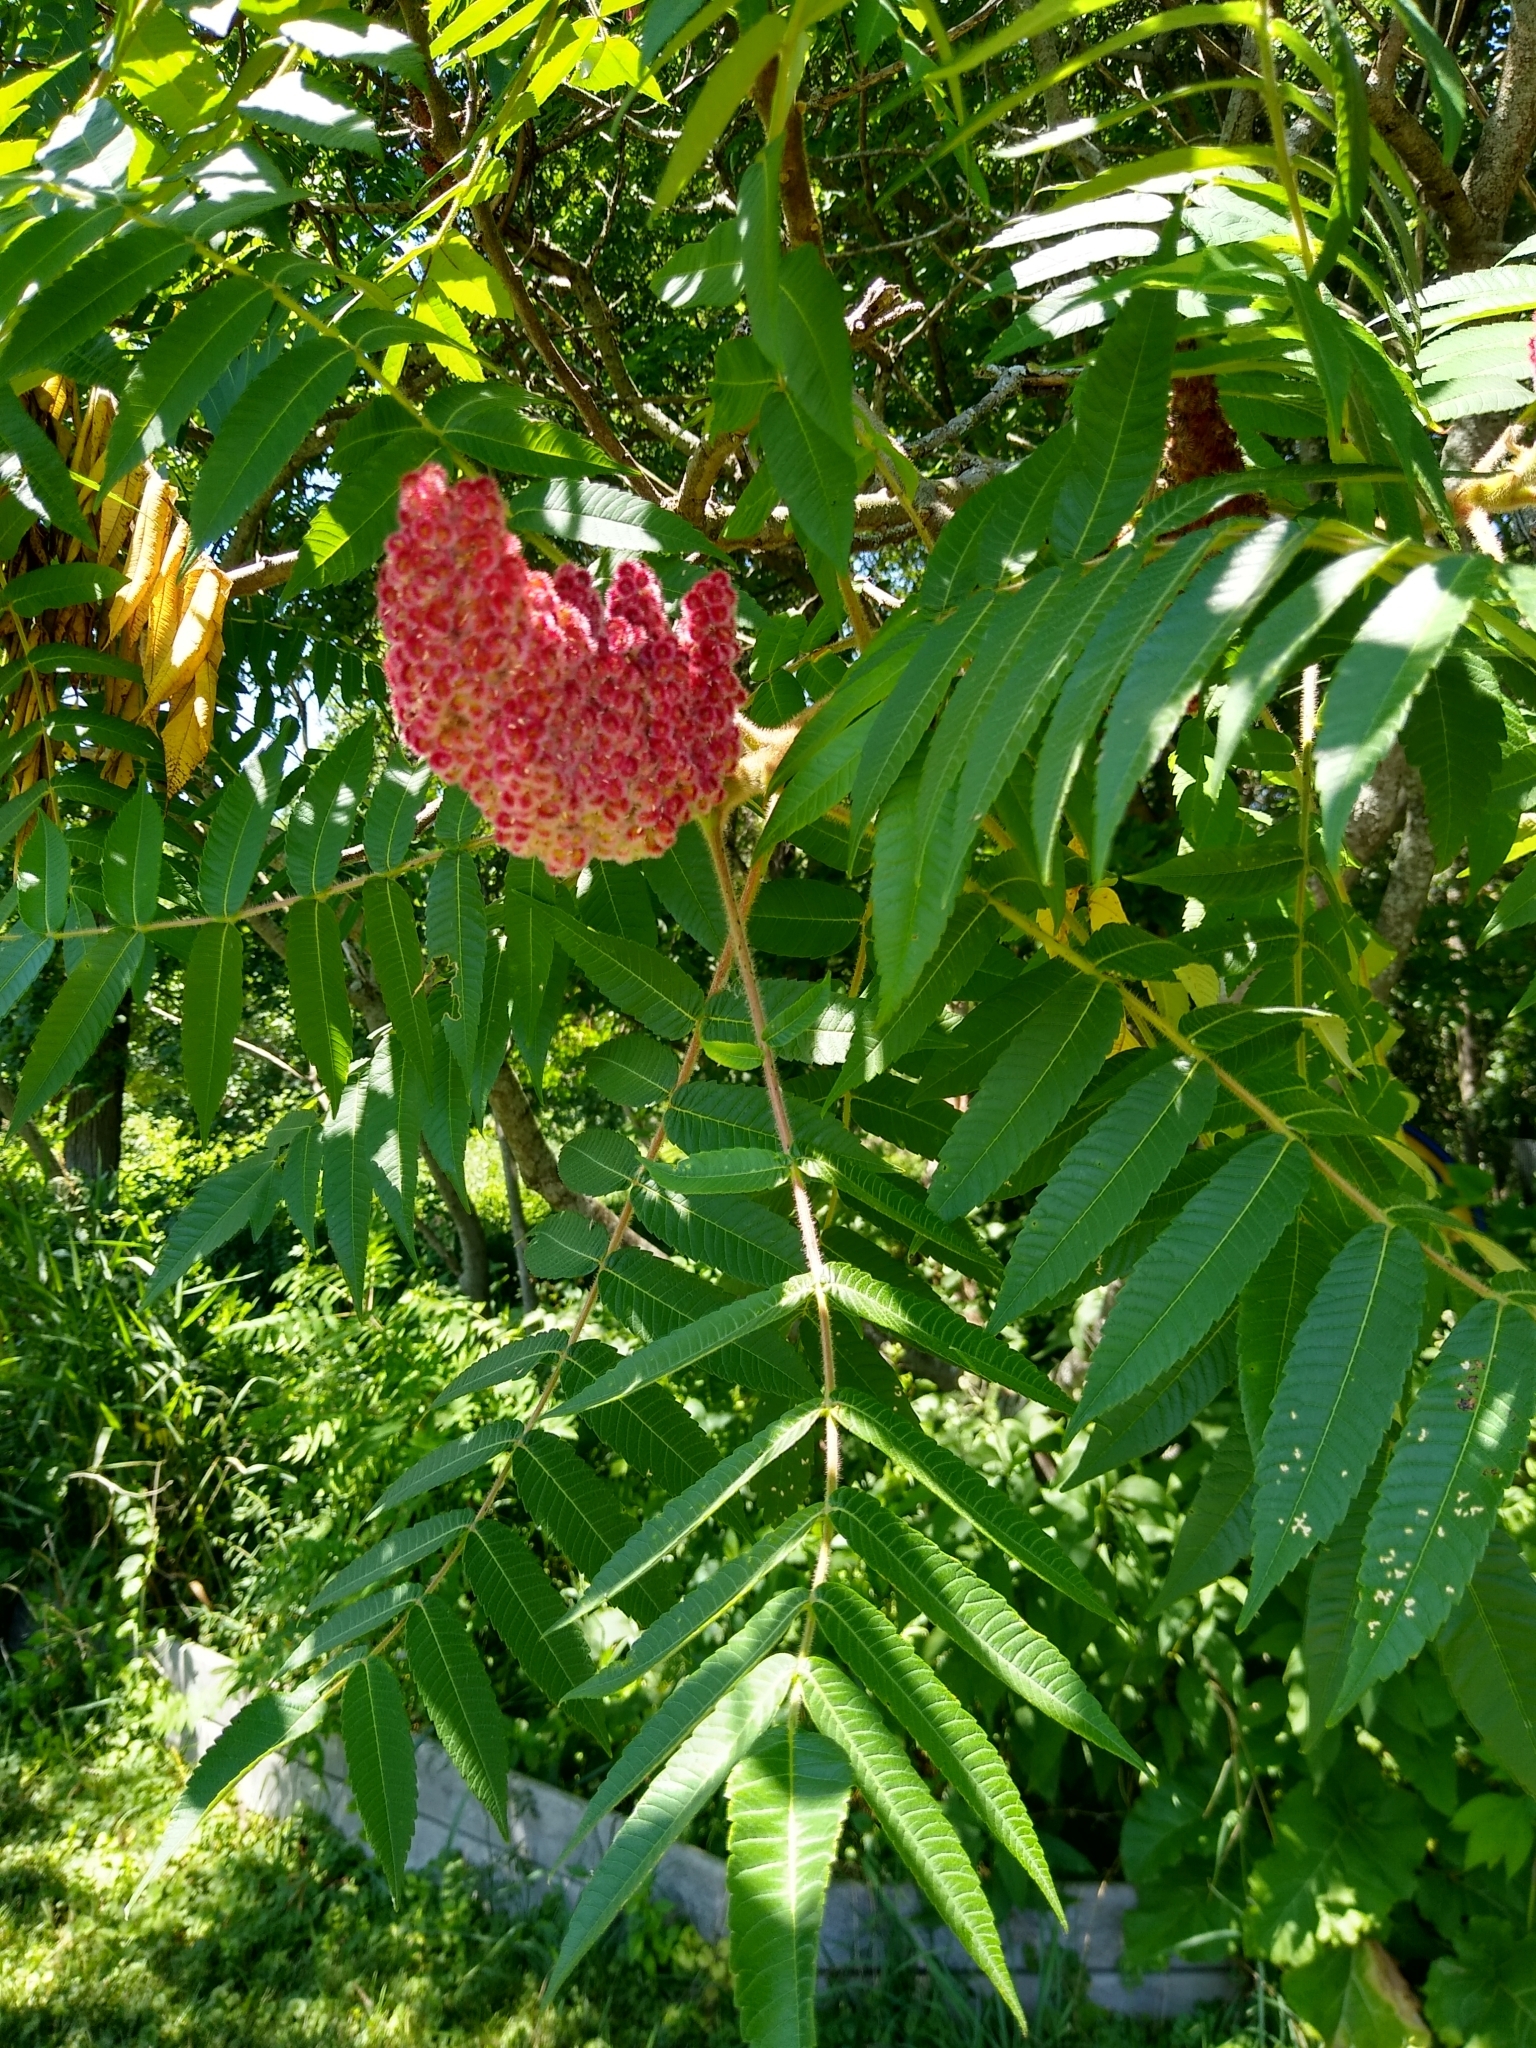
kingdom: Plantae
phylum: Tracheophyta
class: Magnoliopsida
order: Sapindales
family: Anacardiaceae
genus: Rhus
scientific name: Rhus typhina
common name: Staghorn sumac
